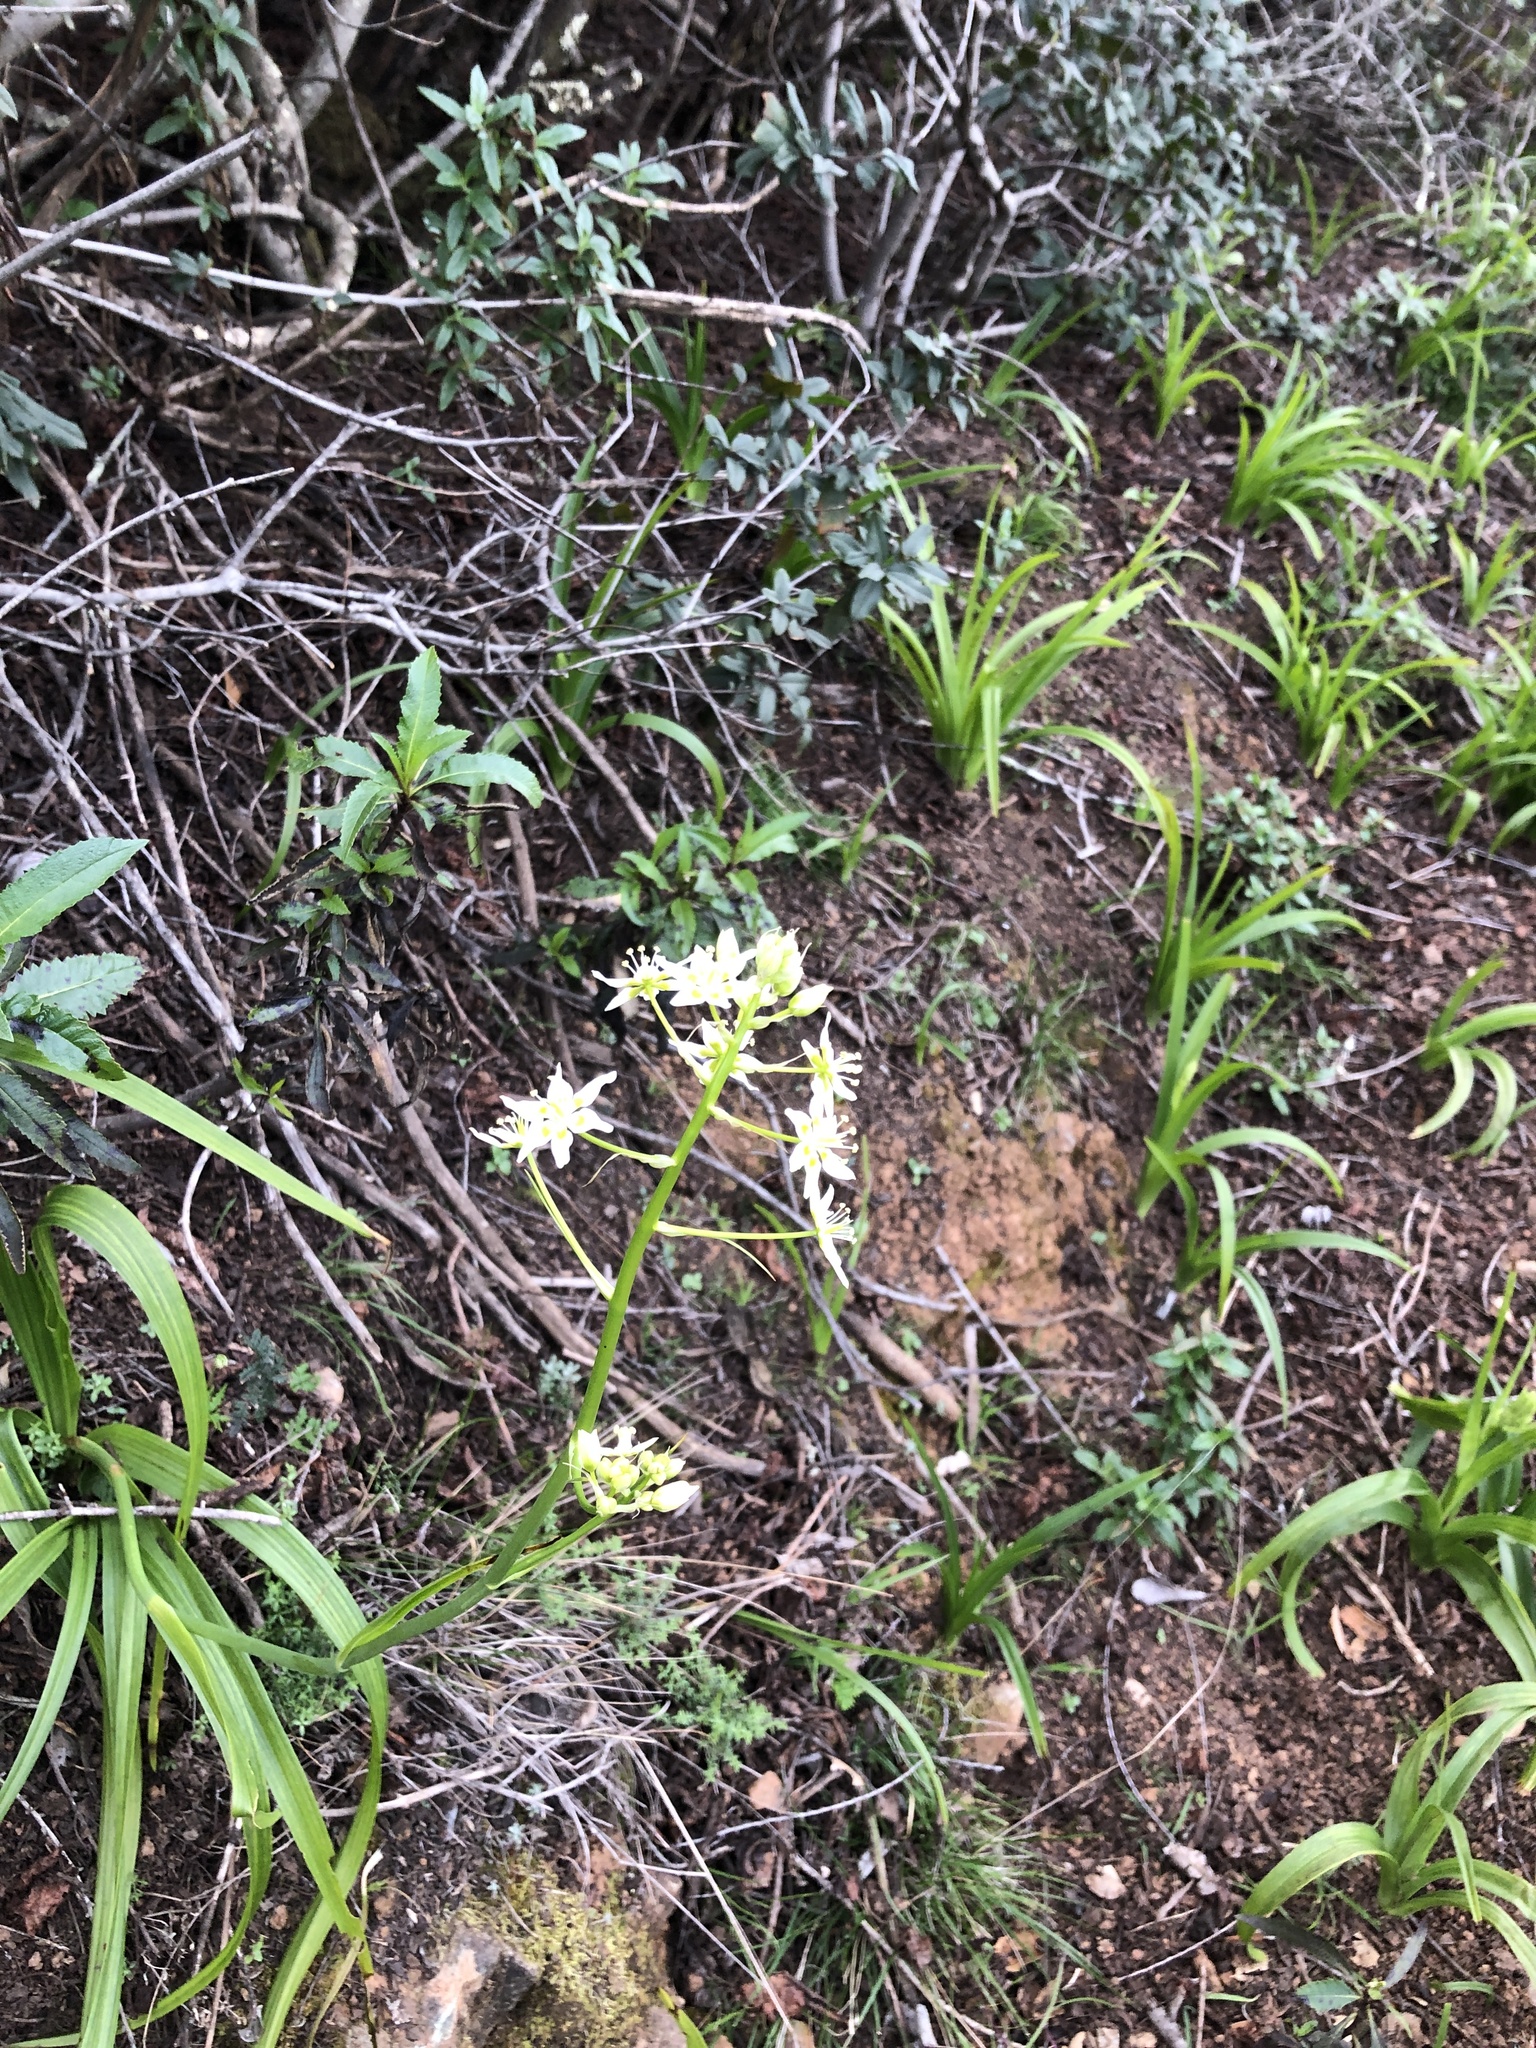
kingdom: Plantae
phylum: Tracheophyta
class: Liliopsida
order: Liliales
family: Melanthiaceae
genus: Toxicoscordion
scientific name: Toxicoscordion fremontii
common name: Fremont's death camas
